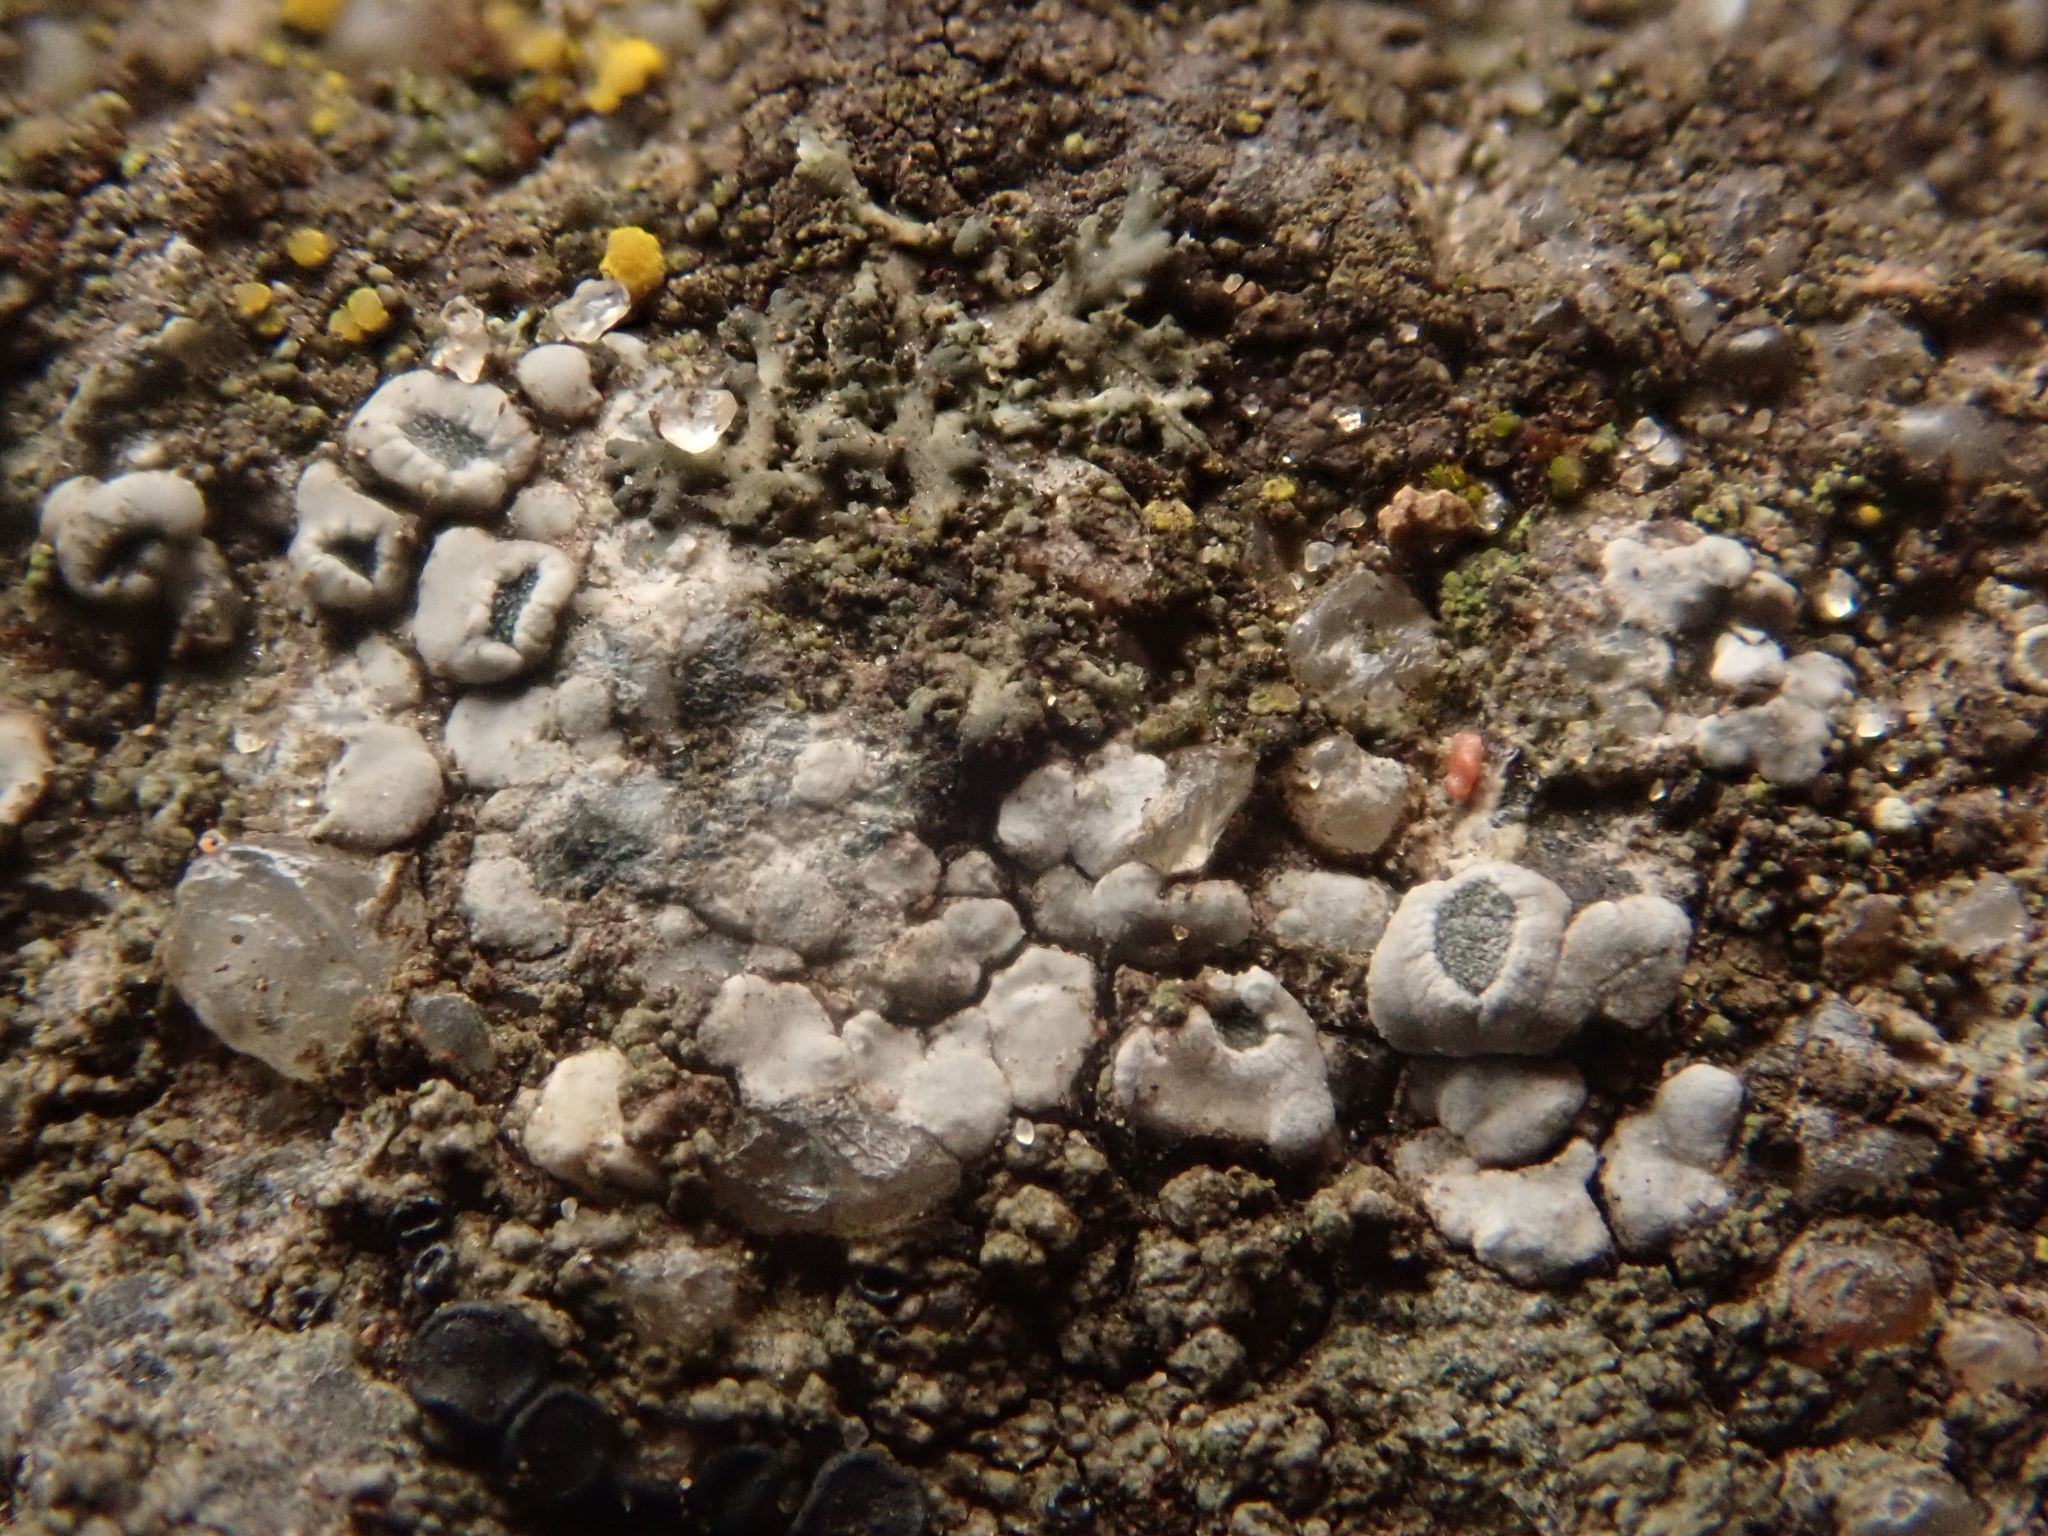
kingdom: Fungi
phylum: Ascomycota
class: Lecanoromycetes
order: Pertusariales
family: Megasporaceae
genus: Circinaria
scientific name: Circinaria contorta
